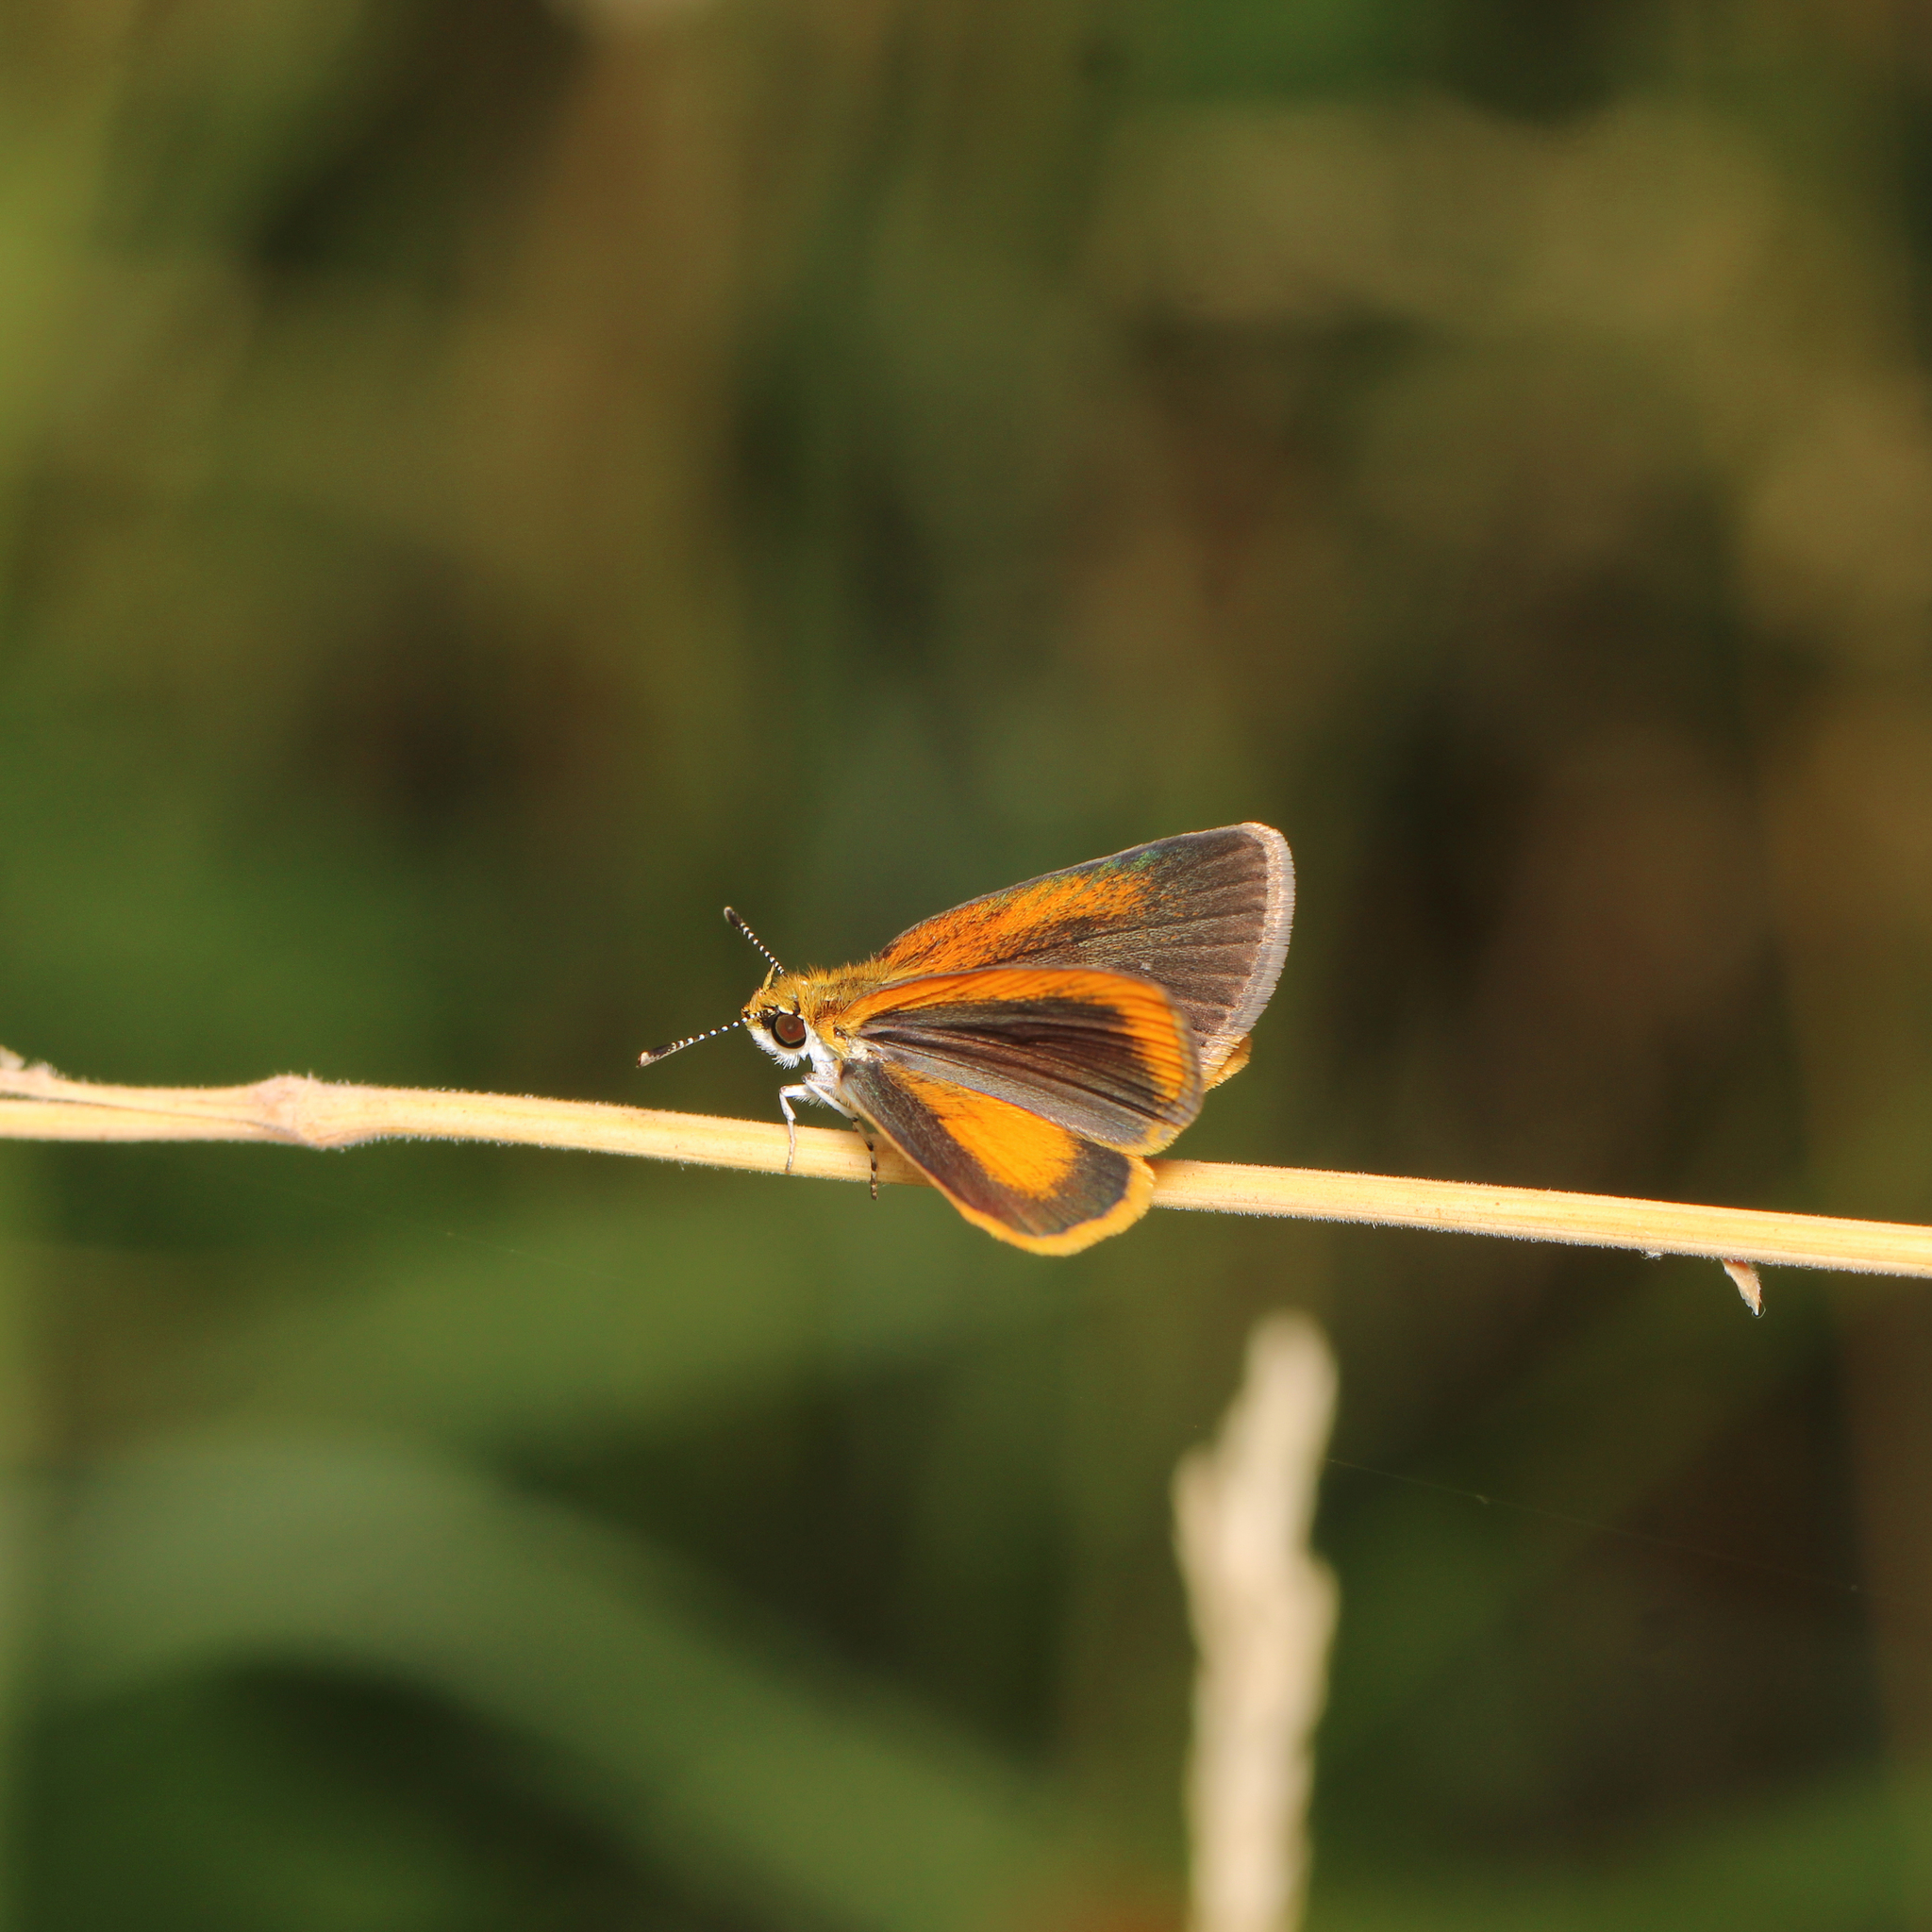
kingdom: Animalia
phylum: Arthropoda
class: Insecta
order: Lepidoptera
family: Hesperiidae
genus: Ancyloxypha
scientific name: Ancyloxypha numitor
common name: Least skipper
